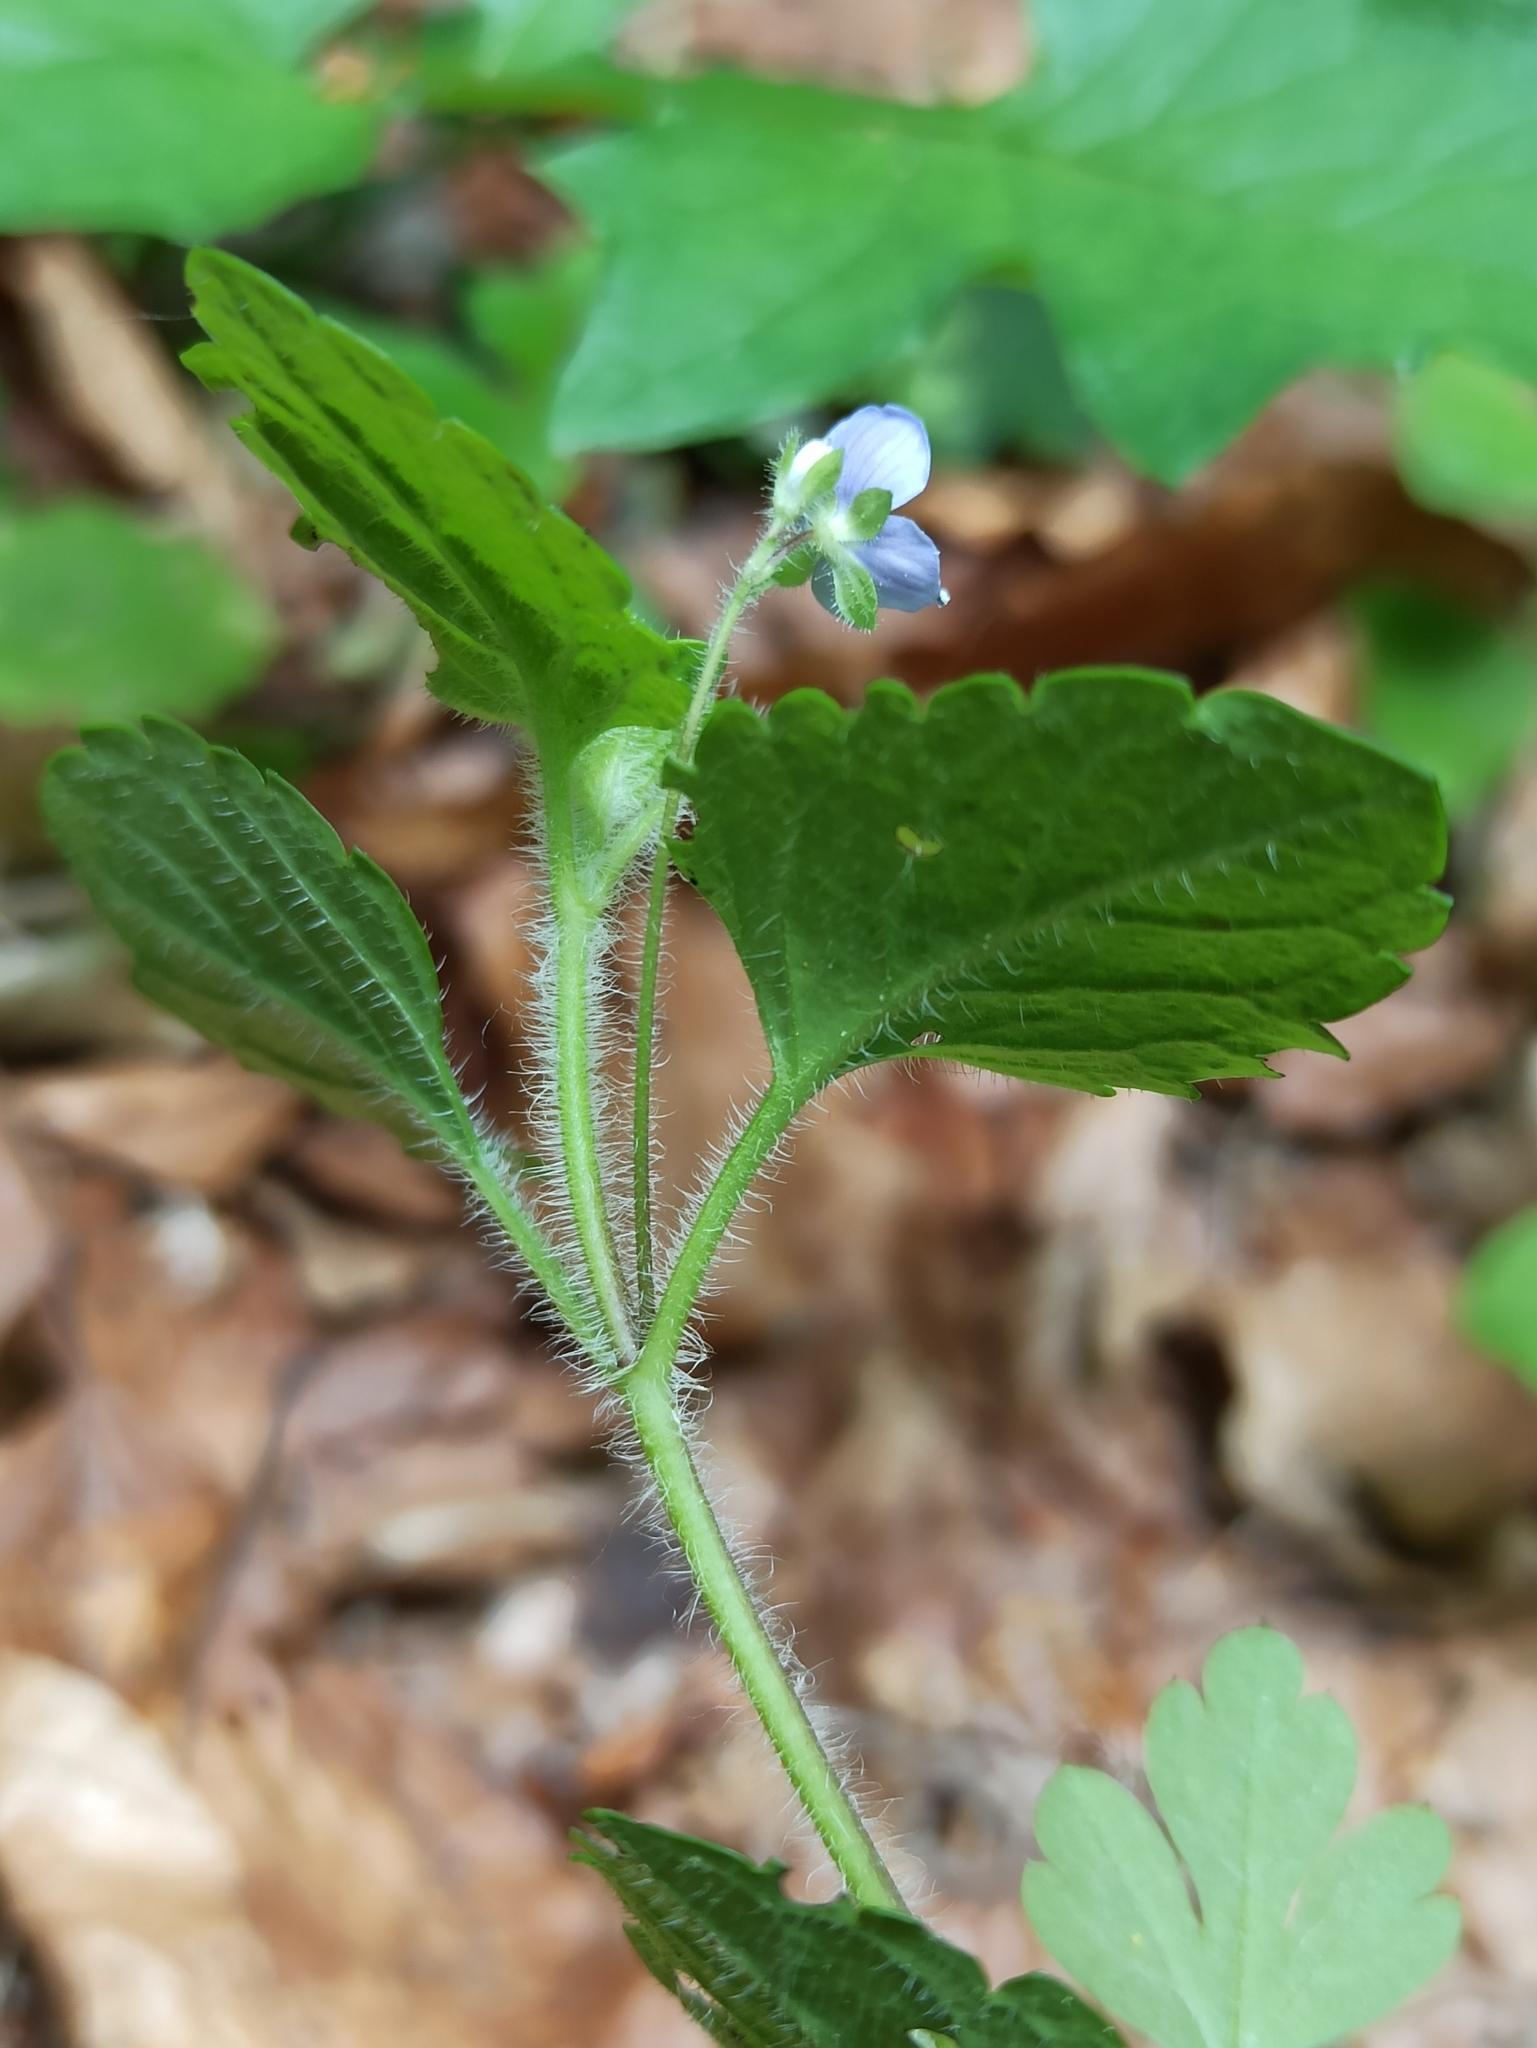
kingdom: Plantae
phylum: Tracheophyta
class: Magnoliopsida
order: Lamiales
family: Plantaginaceae
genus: Veronica
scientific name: Veronica montana
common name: Wood speedwell
